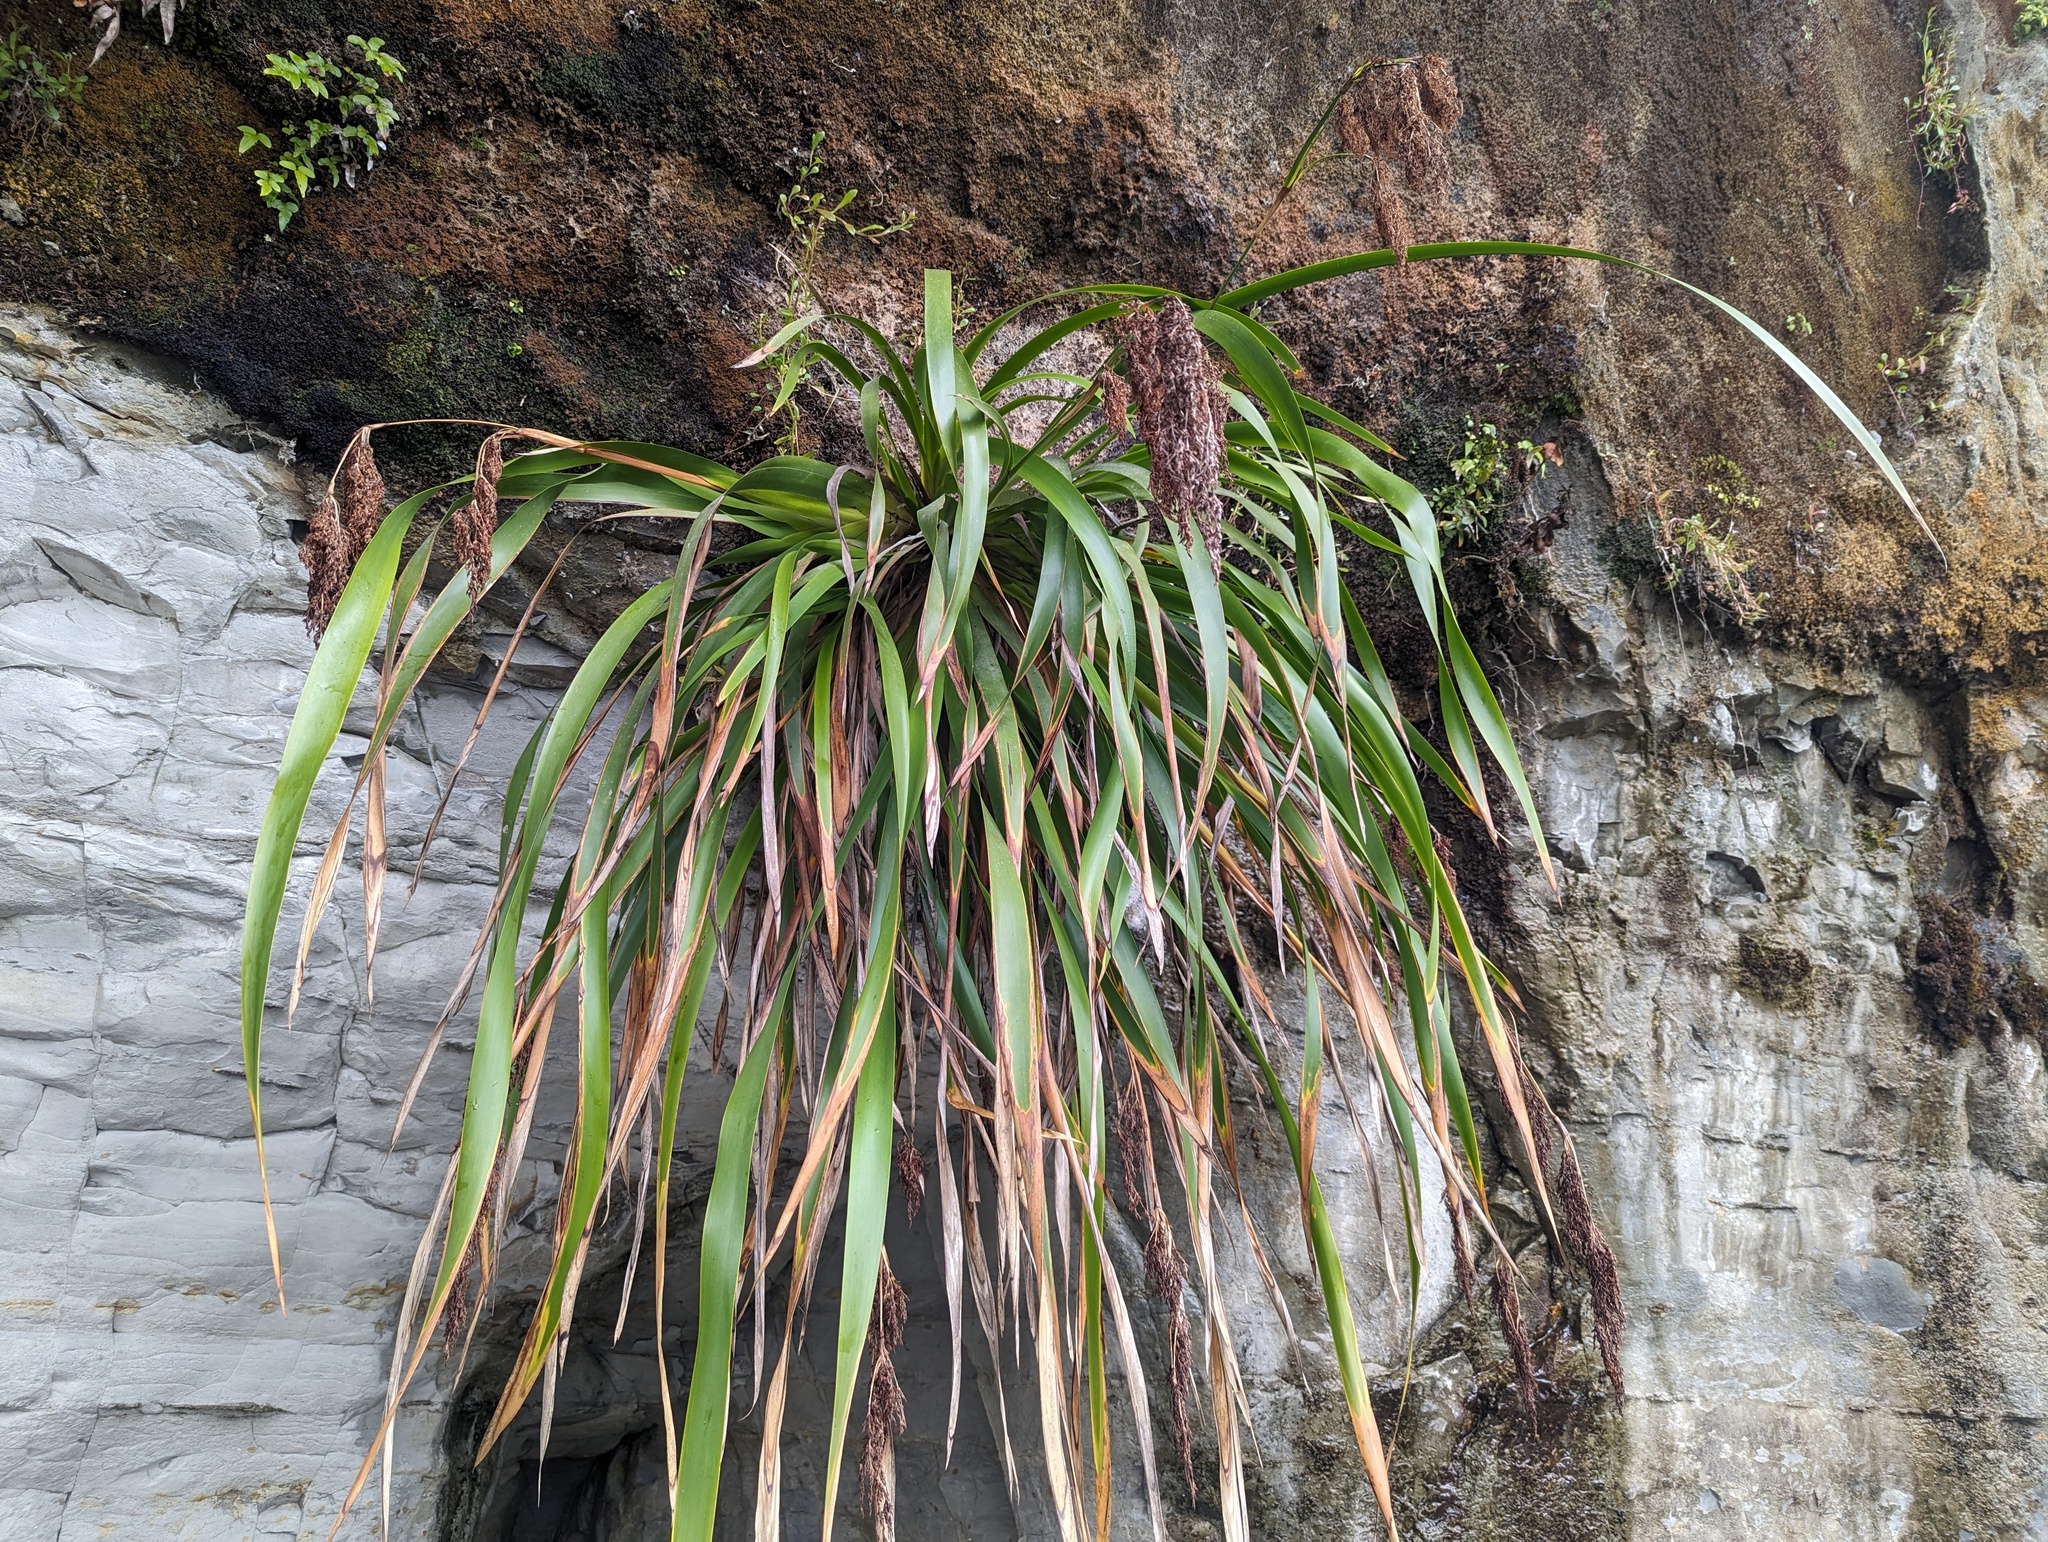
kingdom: Plantae
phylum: Tracheophyta
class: Liliopsida
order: Poales
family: Cyperaceae
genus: Machaerina
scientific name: Machaerina sinclairii
